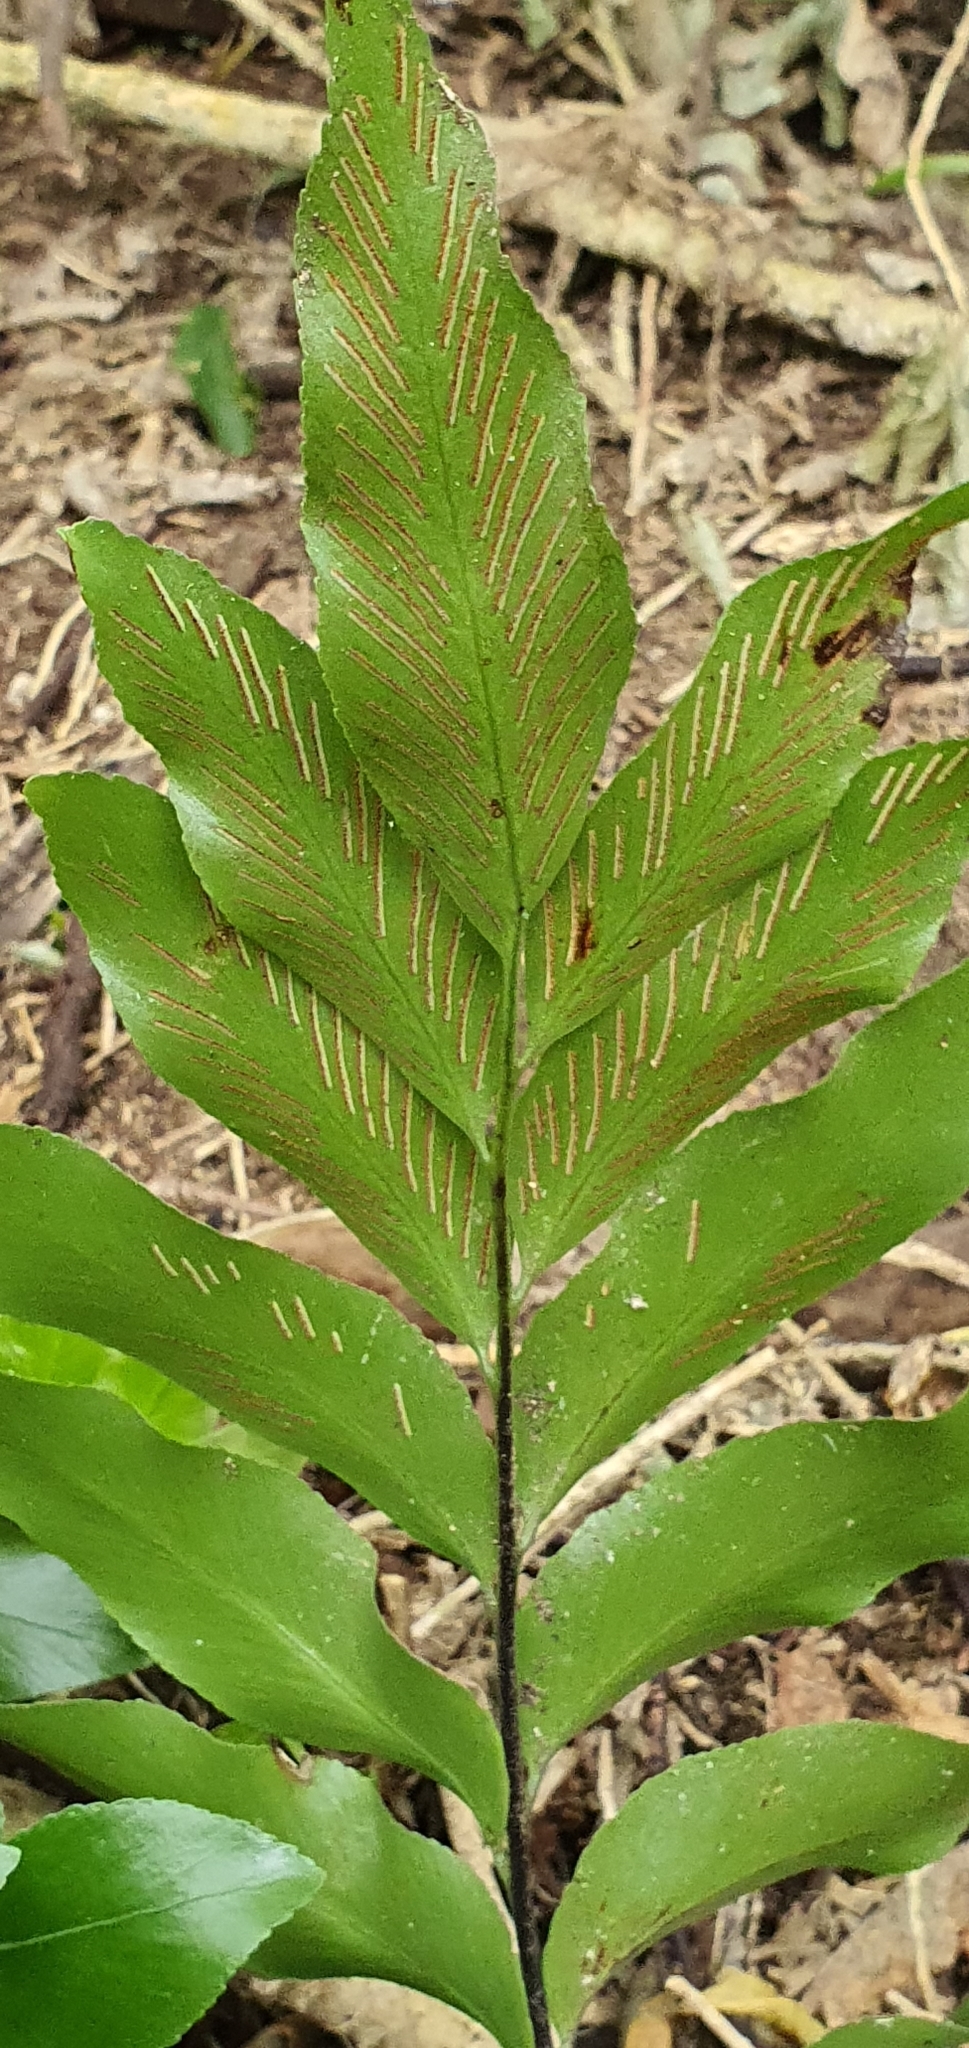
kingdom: Plantae
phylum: Tracheophyta
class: Polypodiopsida
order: Polypodiales
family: Aspleniaceae
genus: Asplenium
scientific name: Asplenium oblongifolium
